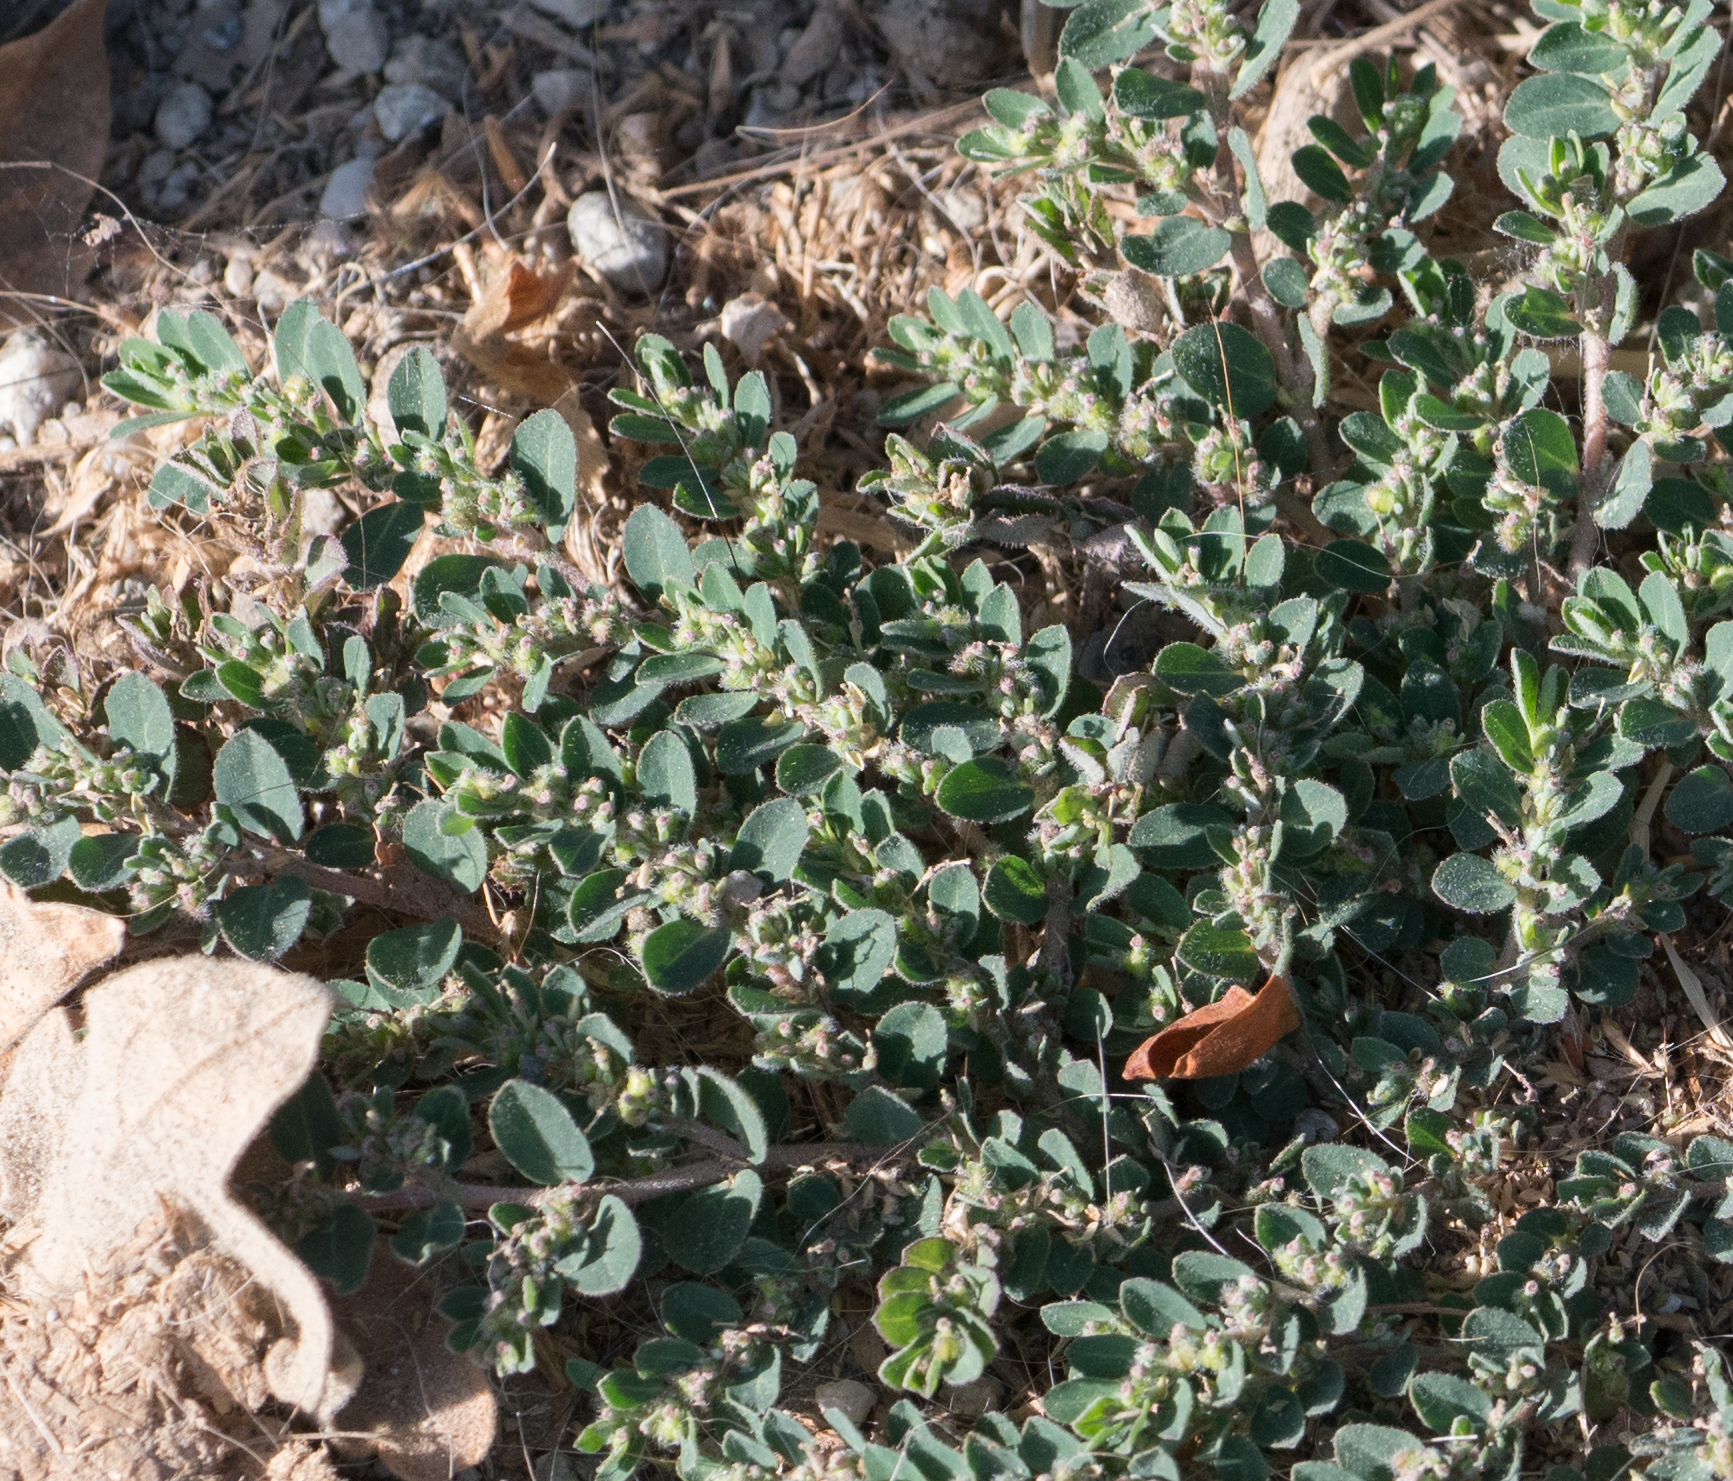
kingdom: Plantae
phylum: Tracheophyta
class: Magnoliopsida
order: Malpighiales
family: Euphorbiaceae
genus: Euphorbia
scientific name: Euphorbia prostrata
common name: Prostrate sandmat
